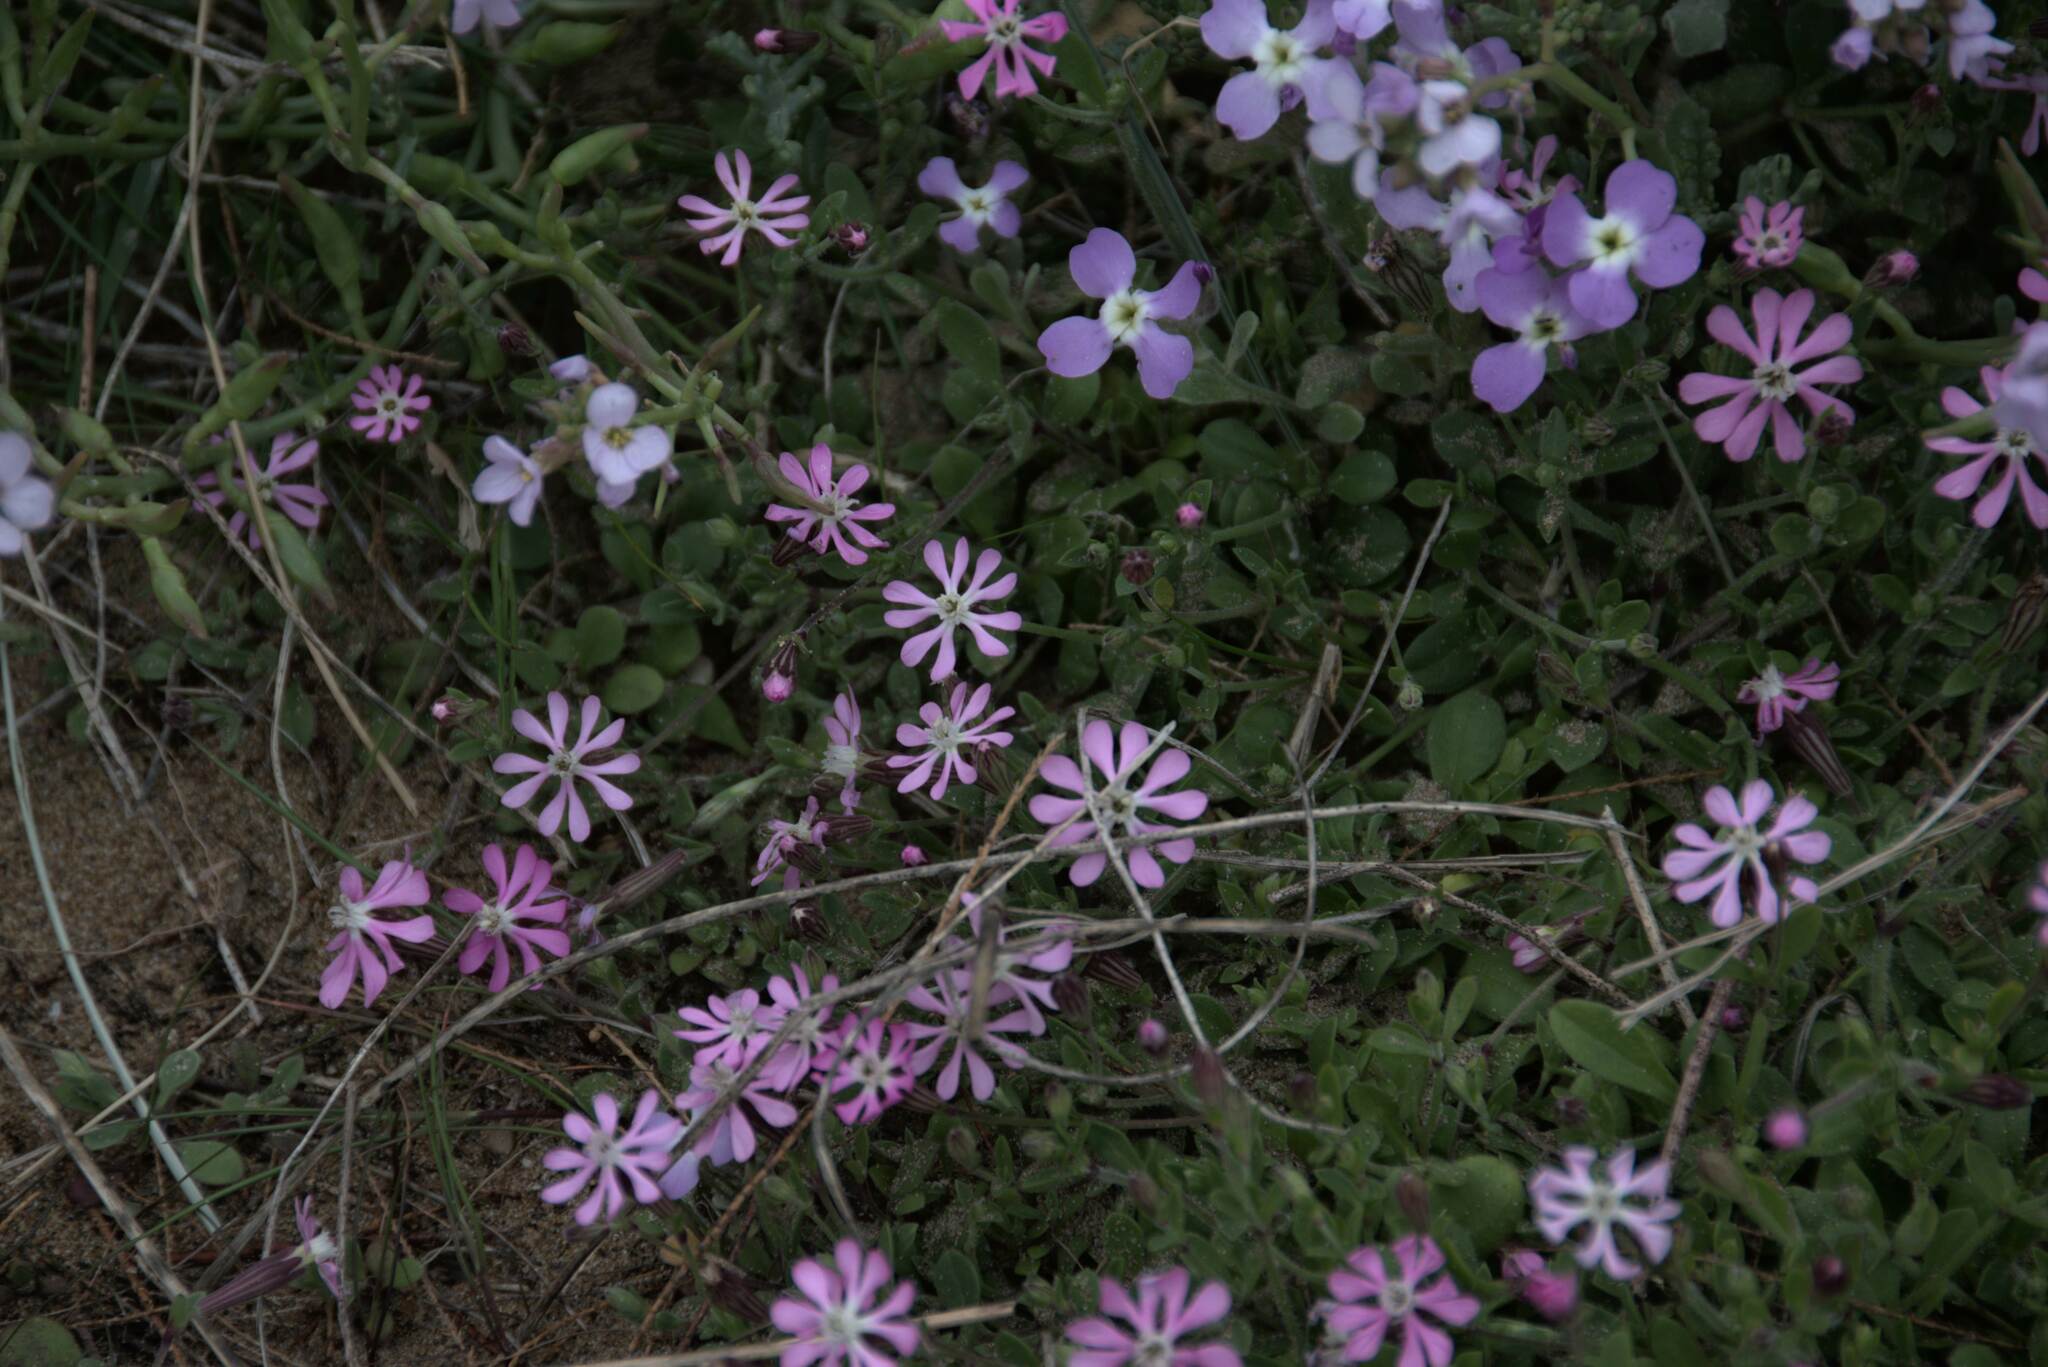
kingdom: Plantae
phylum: Tracheophyta
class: Magnoliopsida
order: Caryophyllales
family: Caryophyllaceae
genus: Silene
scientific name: Silene colorata
